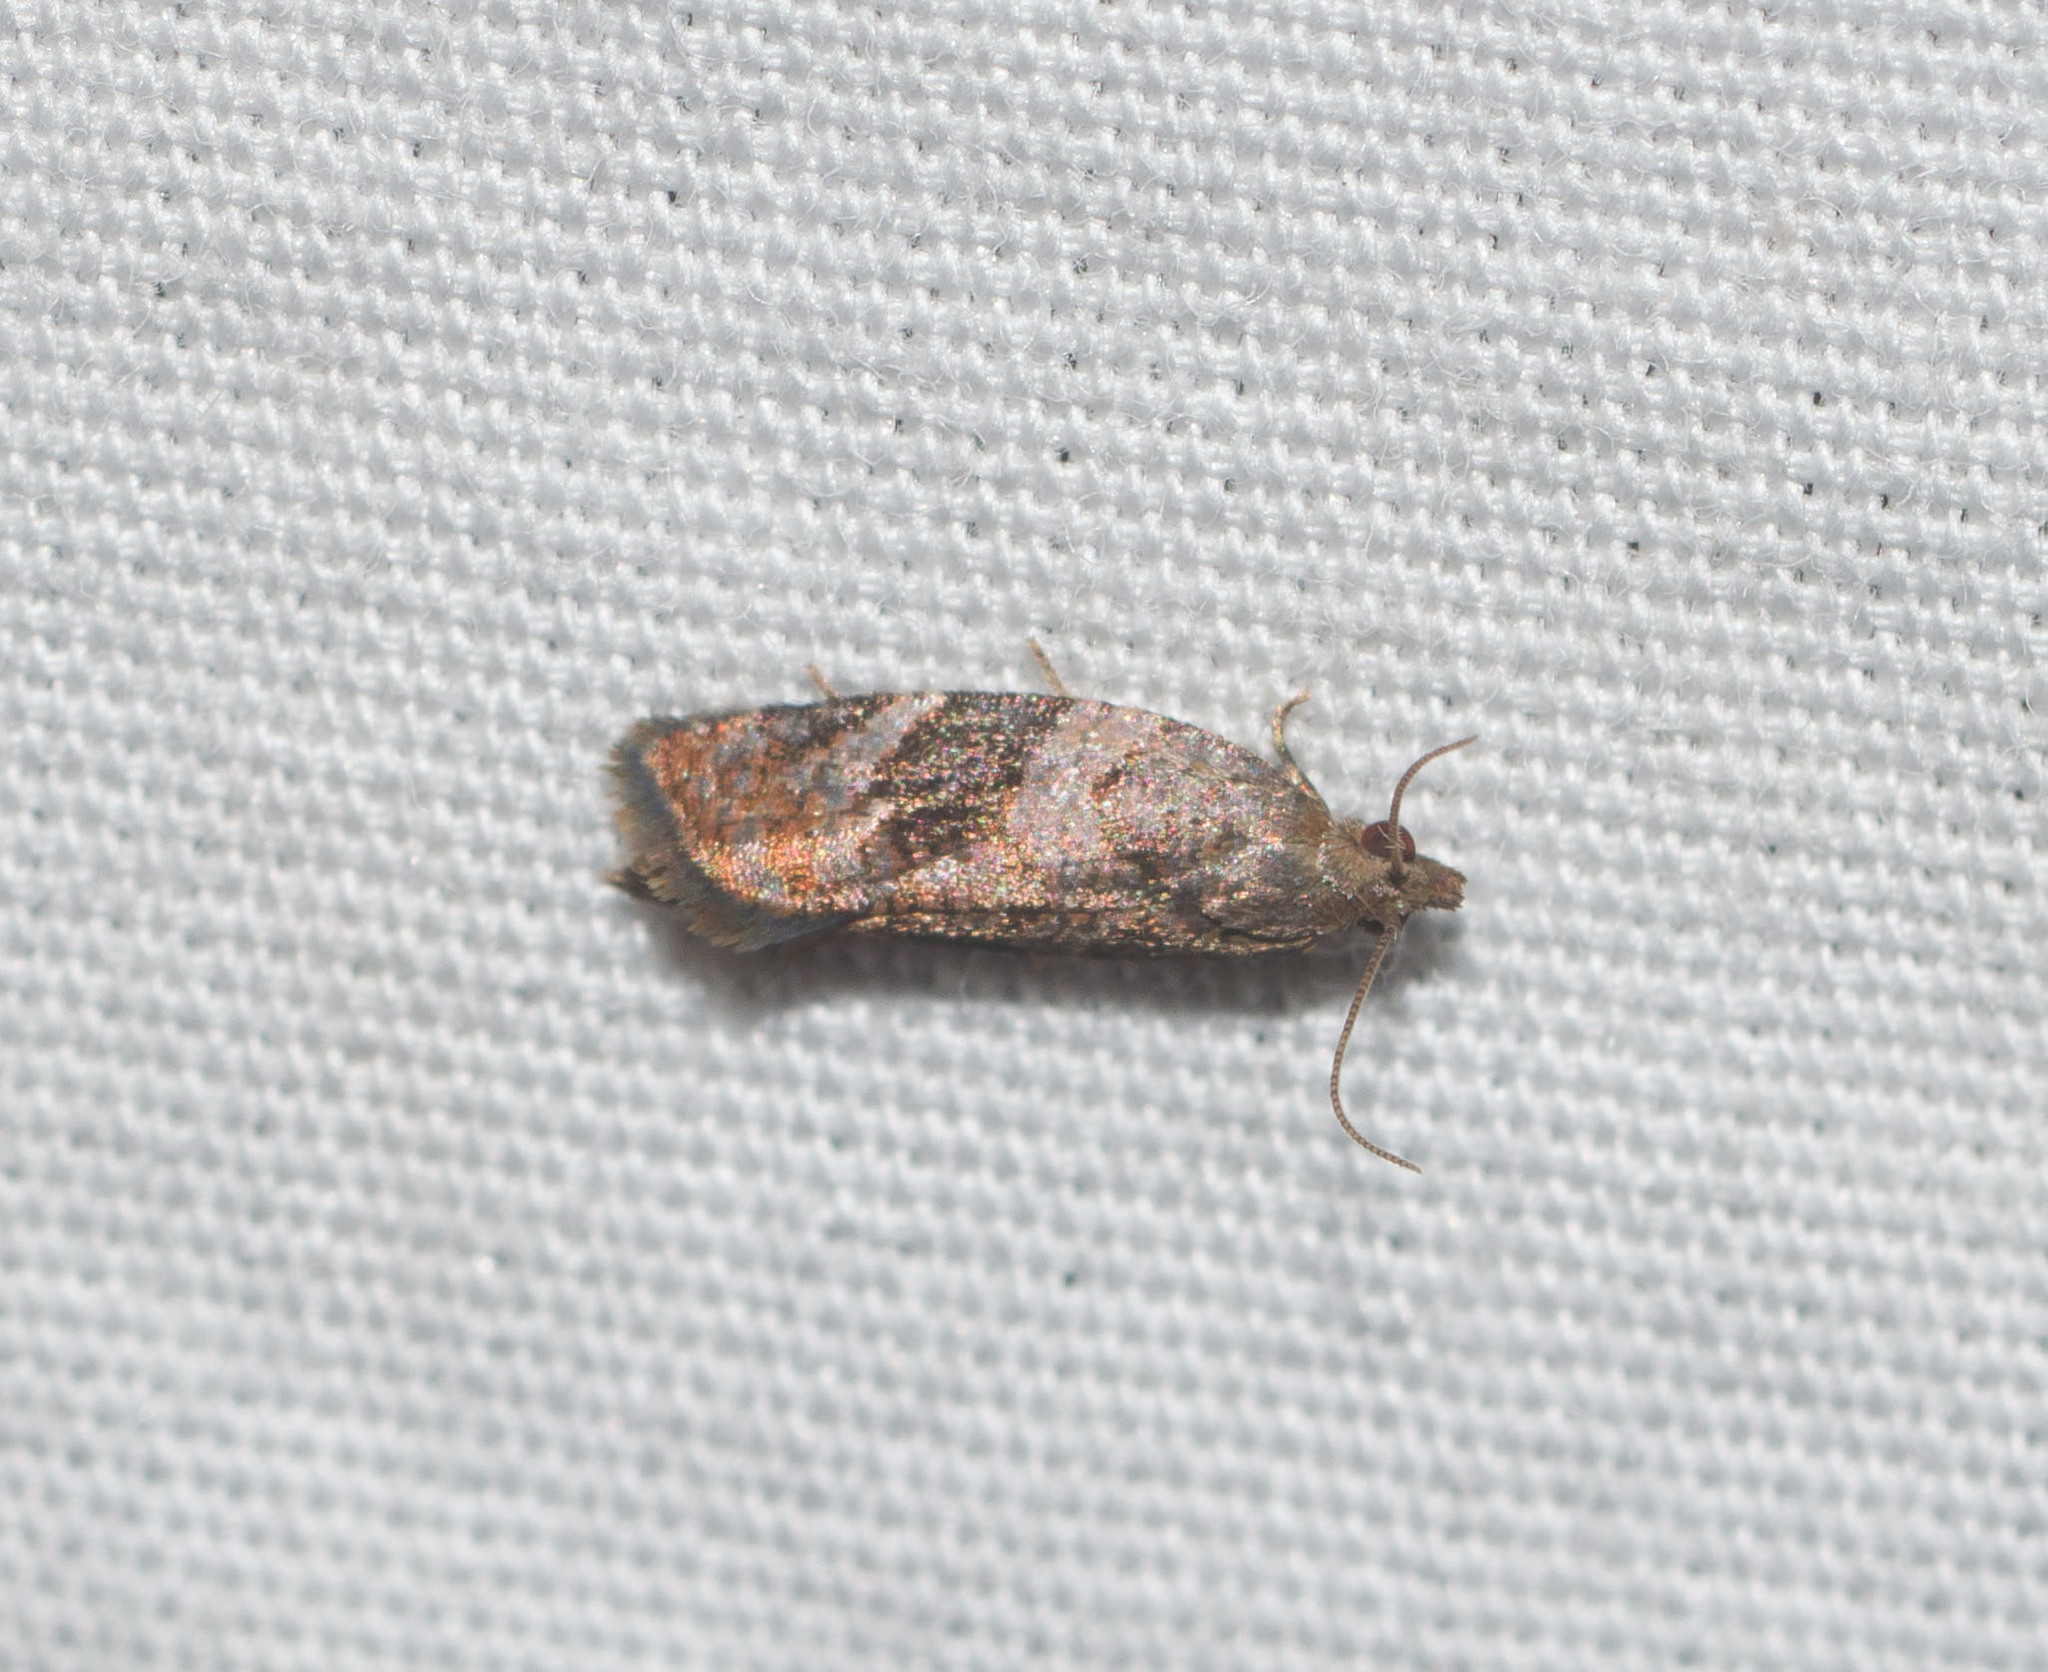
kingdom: Animalia
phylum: Arthropoda
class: Insecta
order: Lepidoptera
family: Tortricidae
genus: Spheterista
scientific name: Spheterista infaustana
